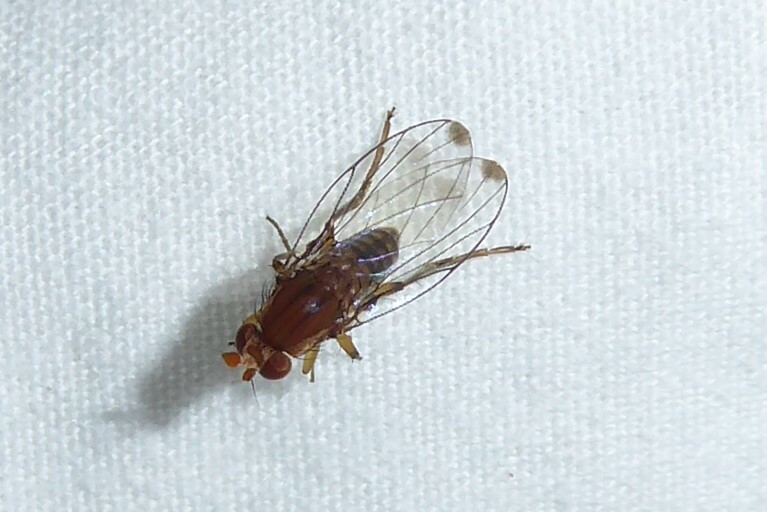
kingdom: Animalia
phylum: Arthropoda
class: Insecta
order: Diptera
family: Phoridae
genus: Sciadocera
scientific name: Sciadocera rufomaculata
